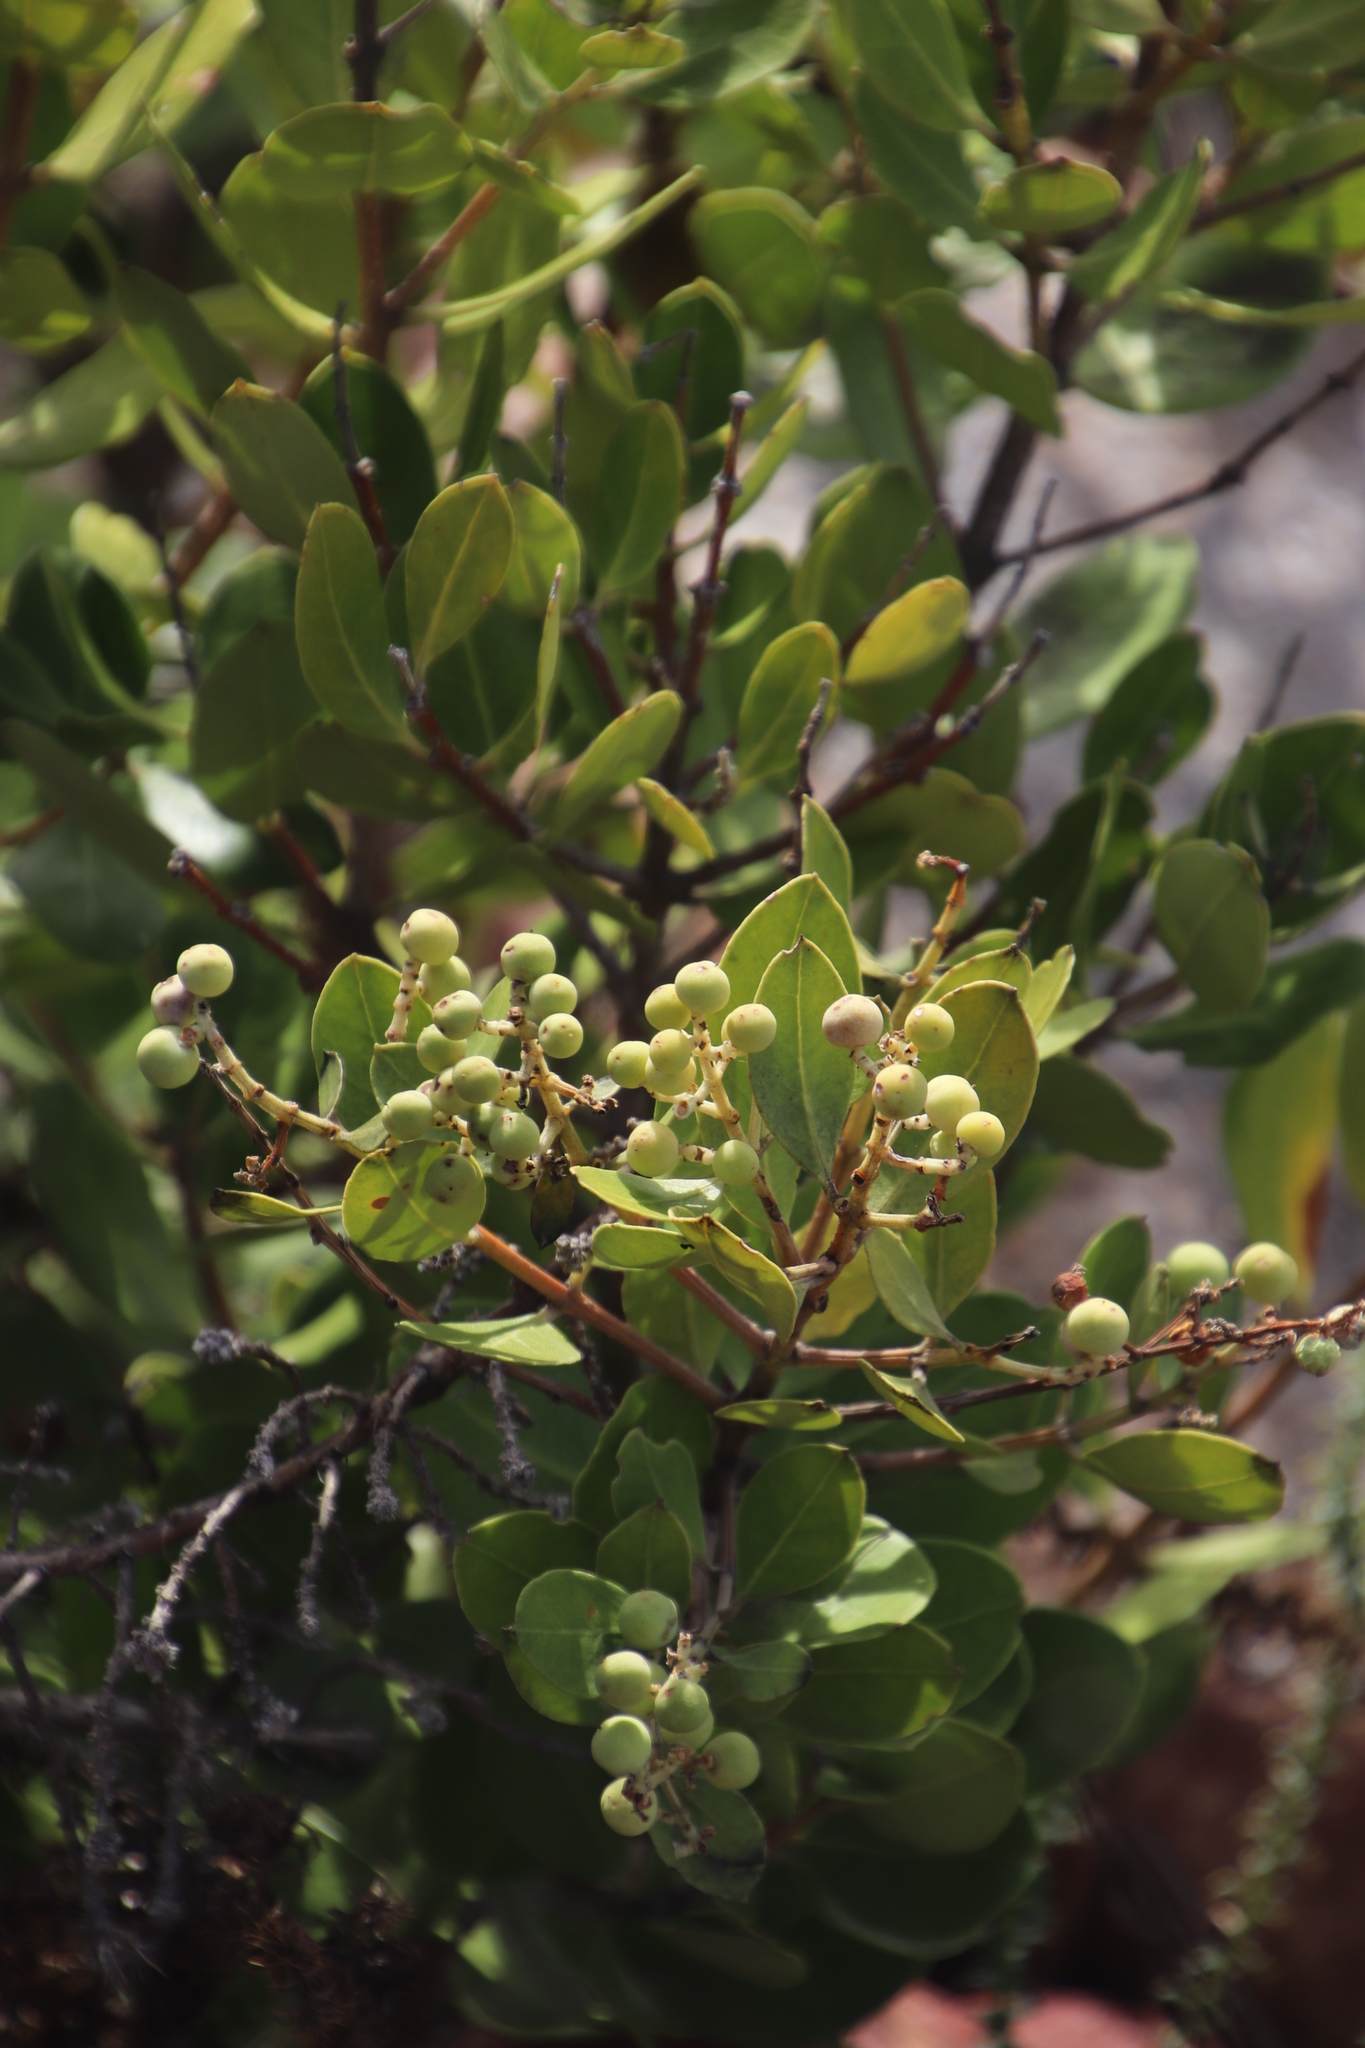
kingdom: Plantae
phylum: Tracheophyta
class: Magnoliopsida
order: Lamiales
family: Oleaceae
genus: Olea
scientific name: Olea capensis
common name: Black ironwood
